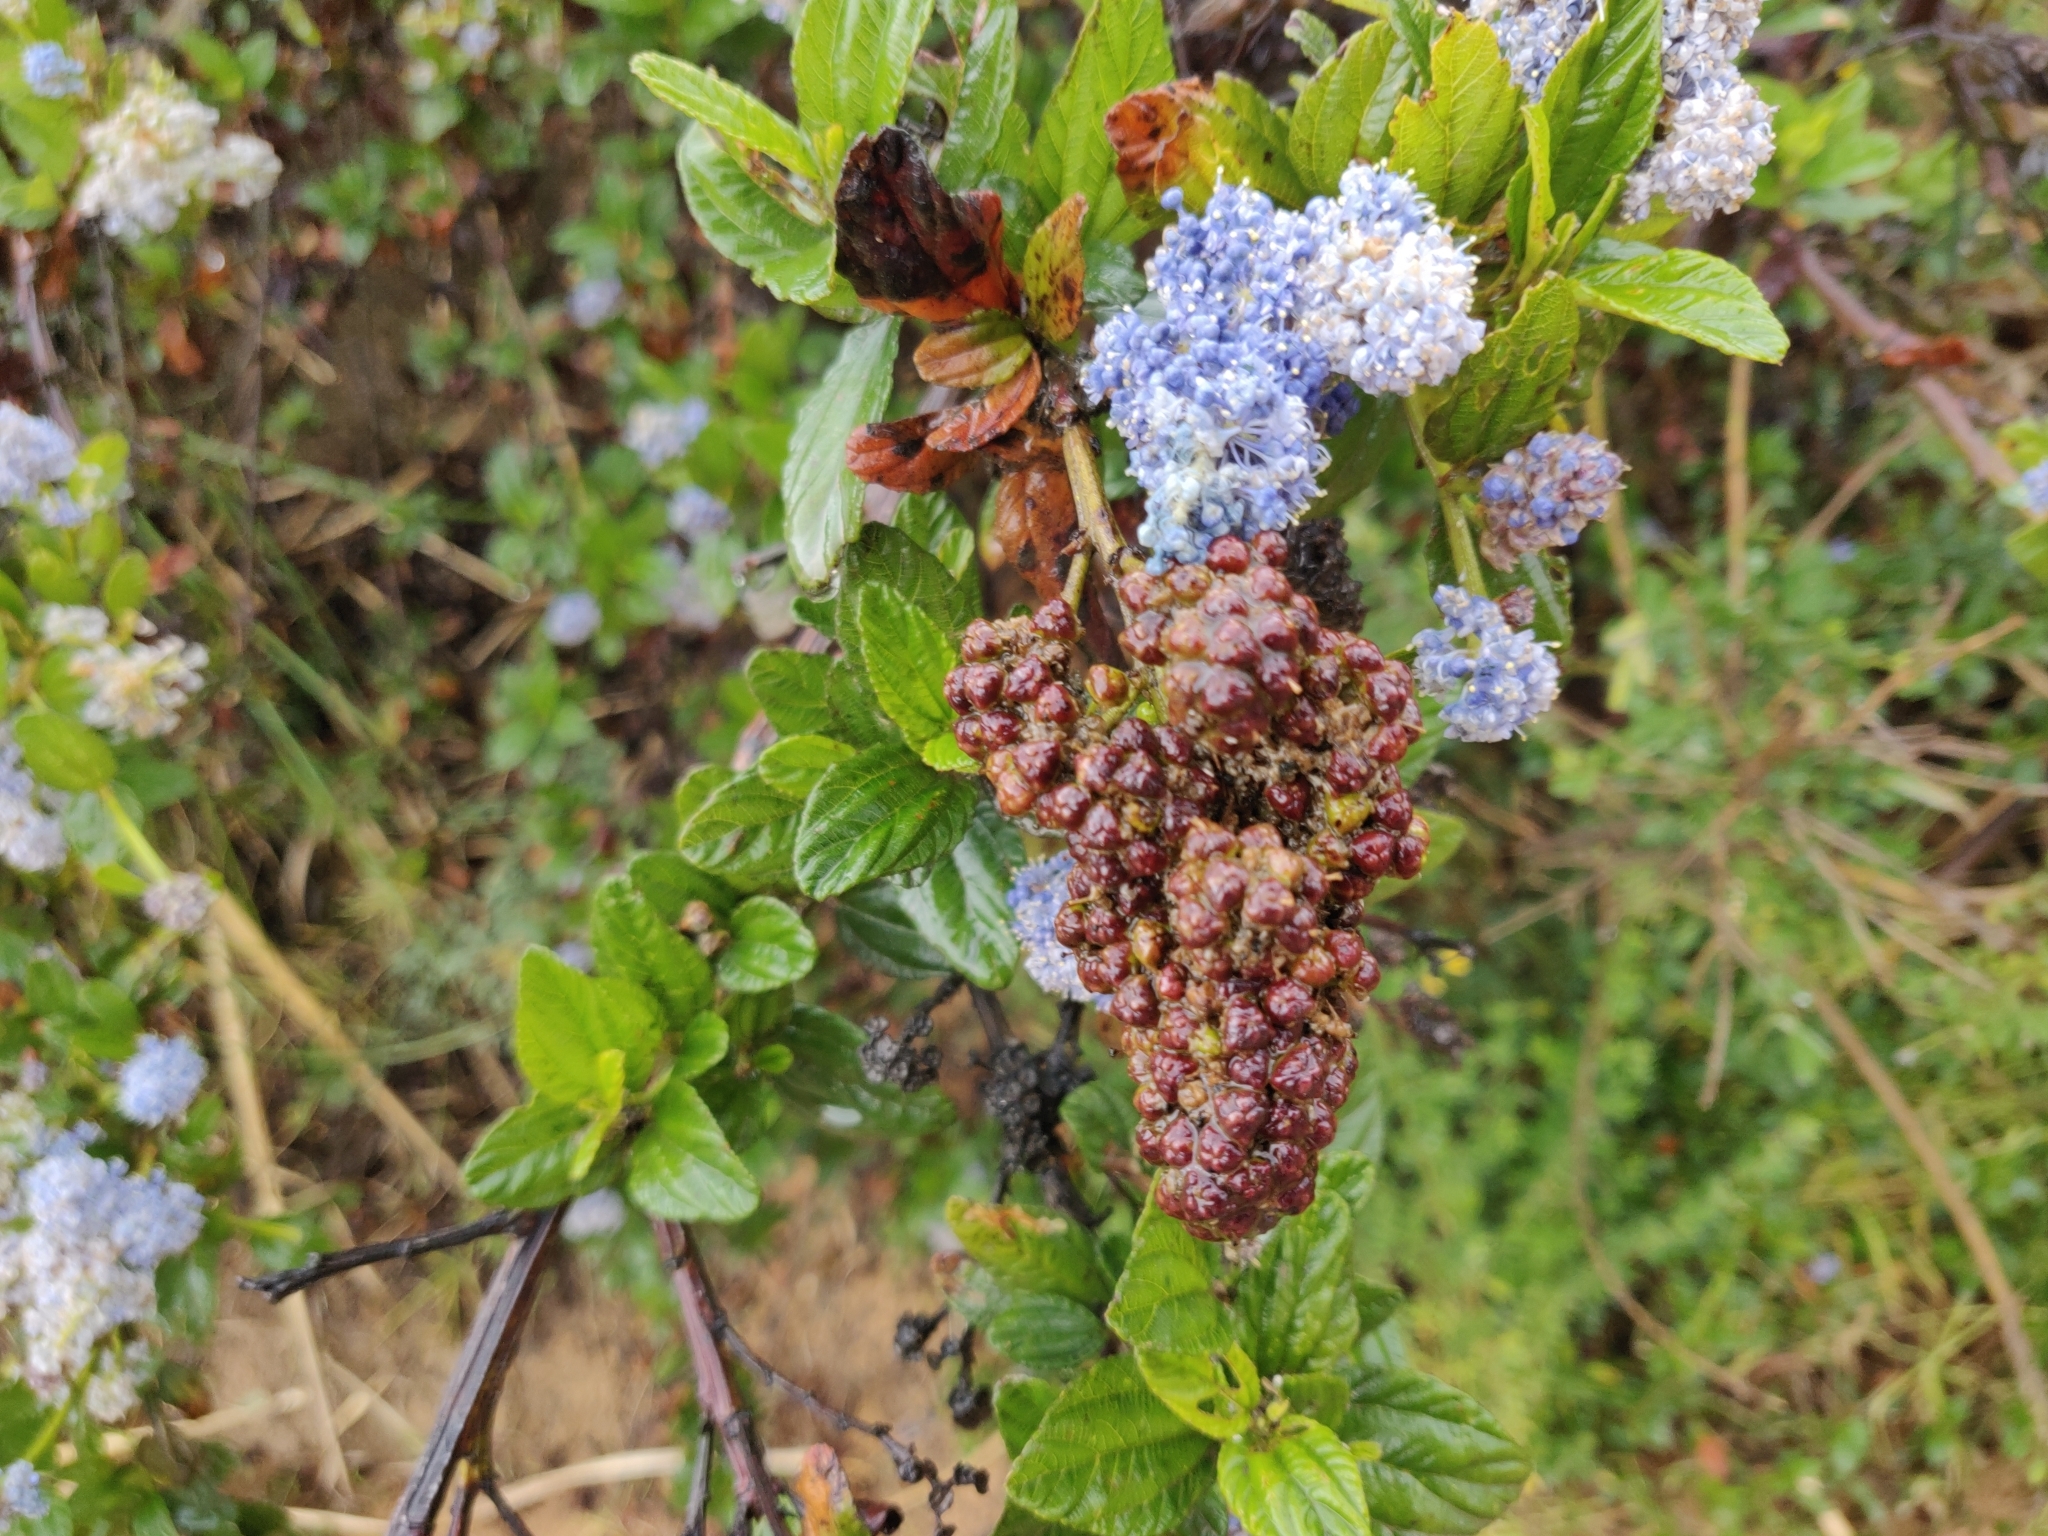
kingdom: Plantae
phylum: Tracheophyta
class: Magnoliopsida
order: Rosales
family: Rhamnaceae
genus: Ceanothus
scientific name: Ceanothus thyrsiflorus
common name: California-lilac
